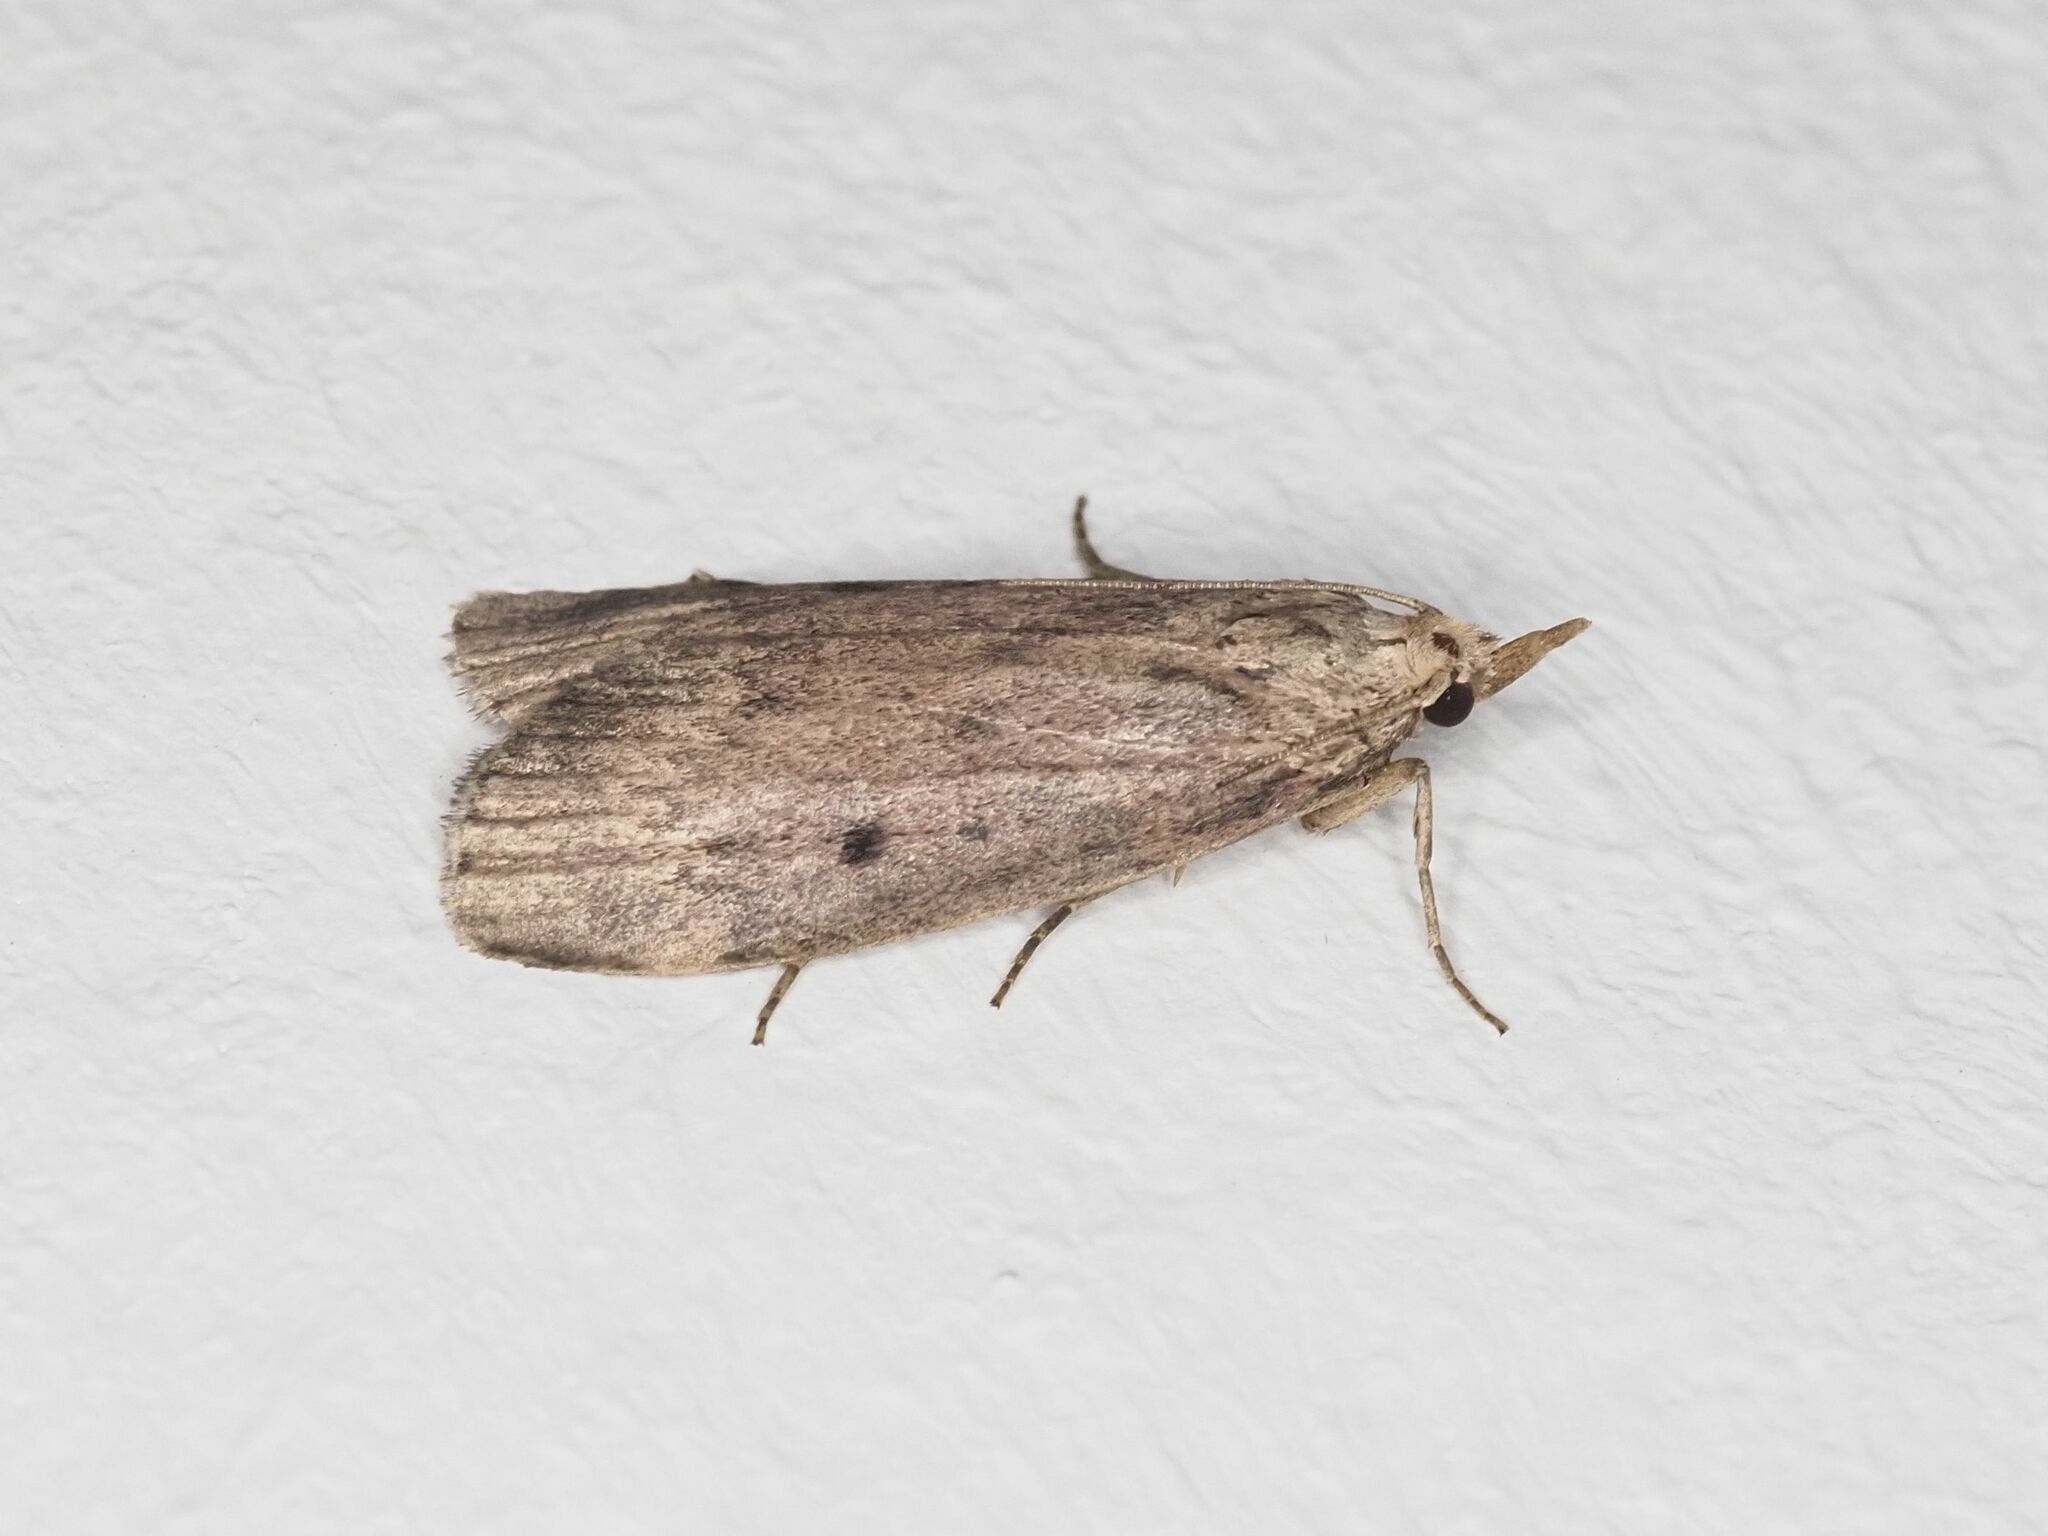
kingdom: Animalia
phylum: Arthropoda
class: Insecta
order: Lepidoptera
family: Pyralidae
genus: Aphomia
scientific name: Aphomia sociella
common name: Bee moth
